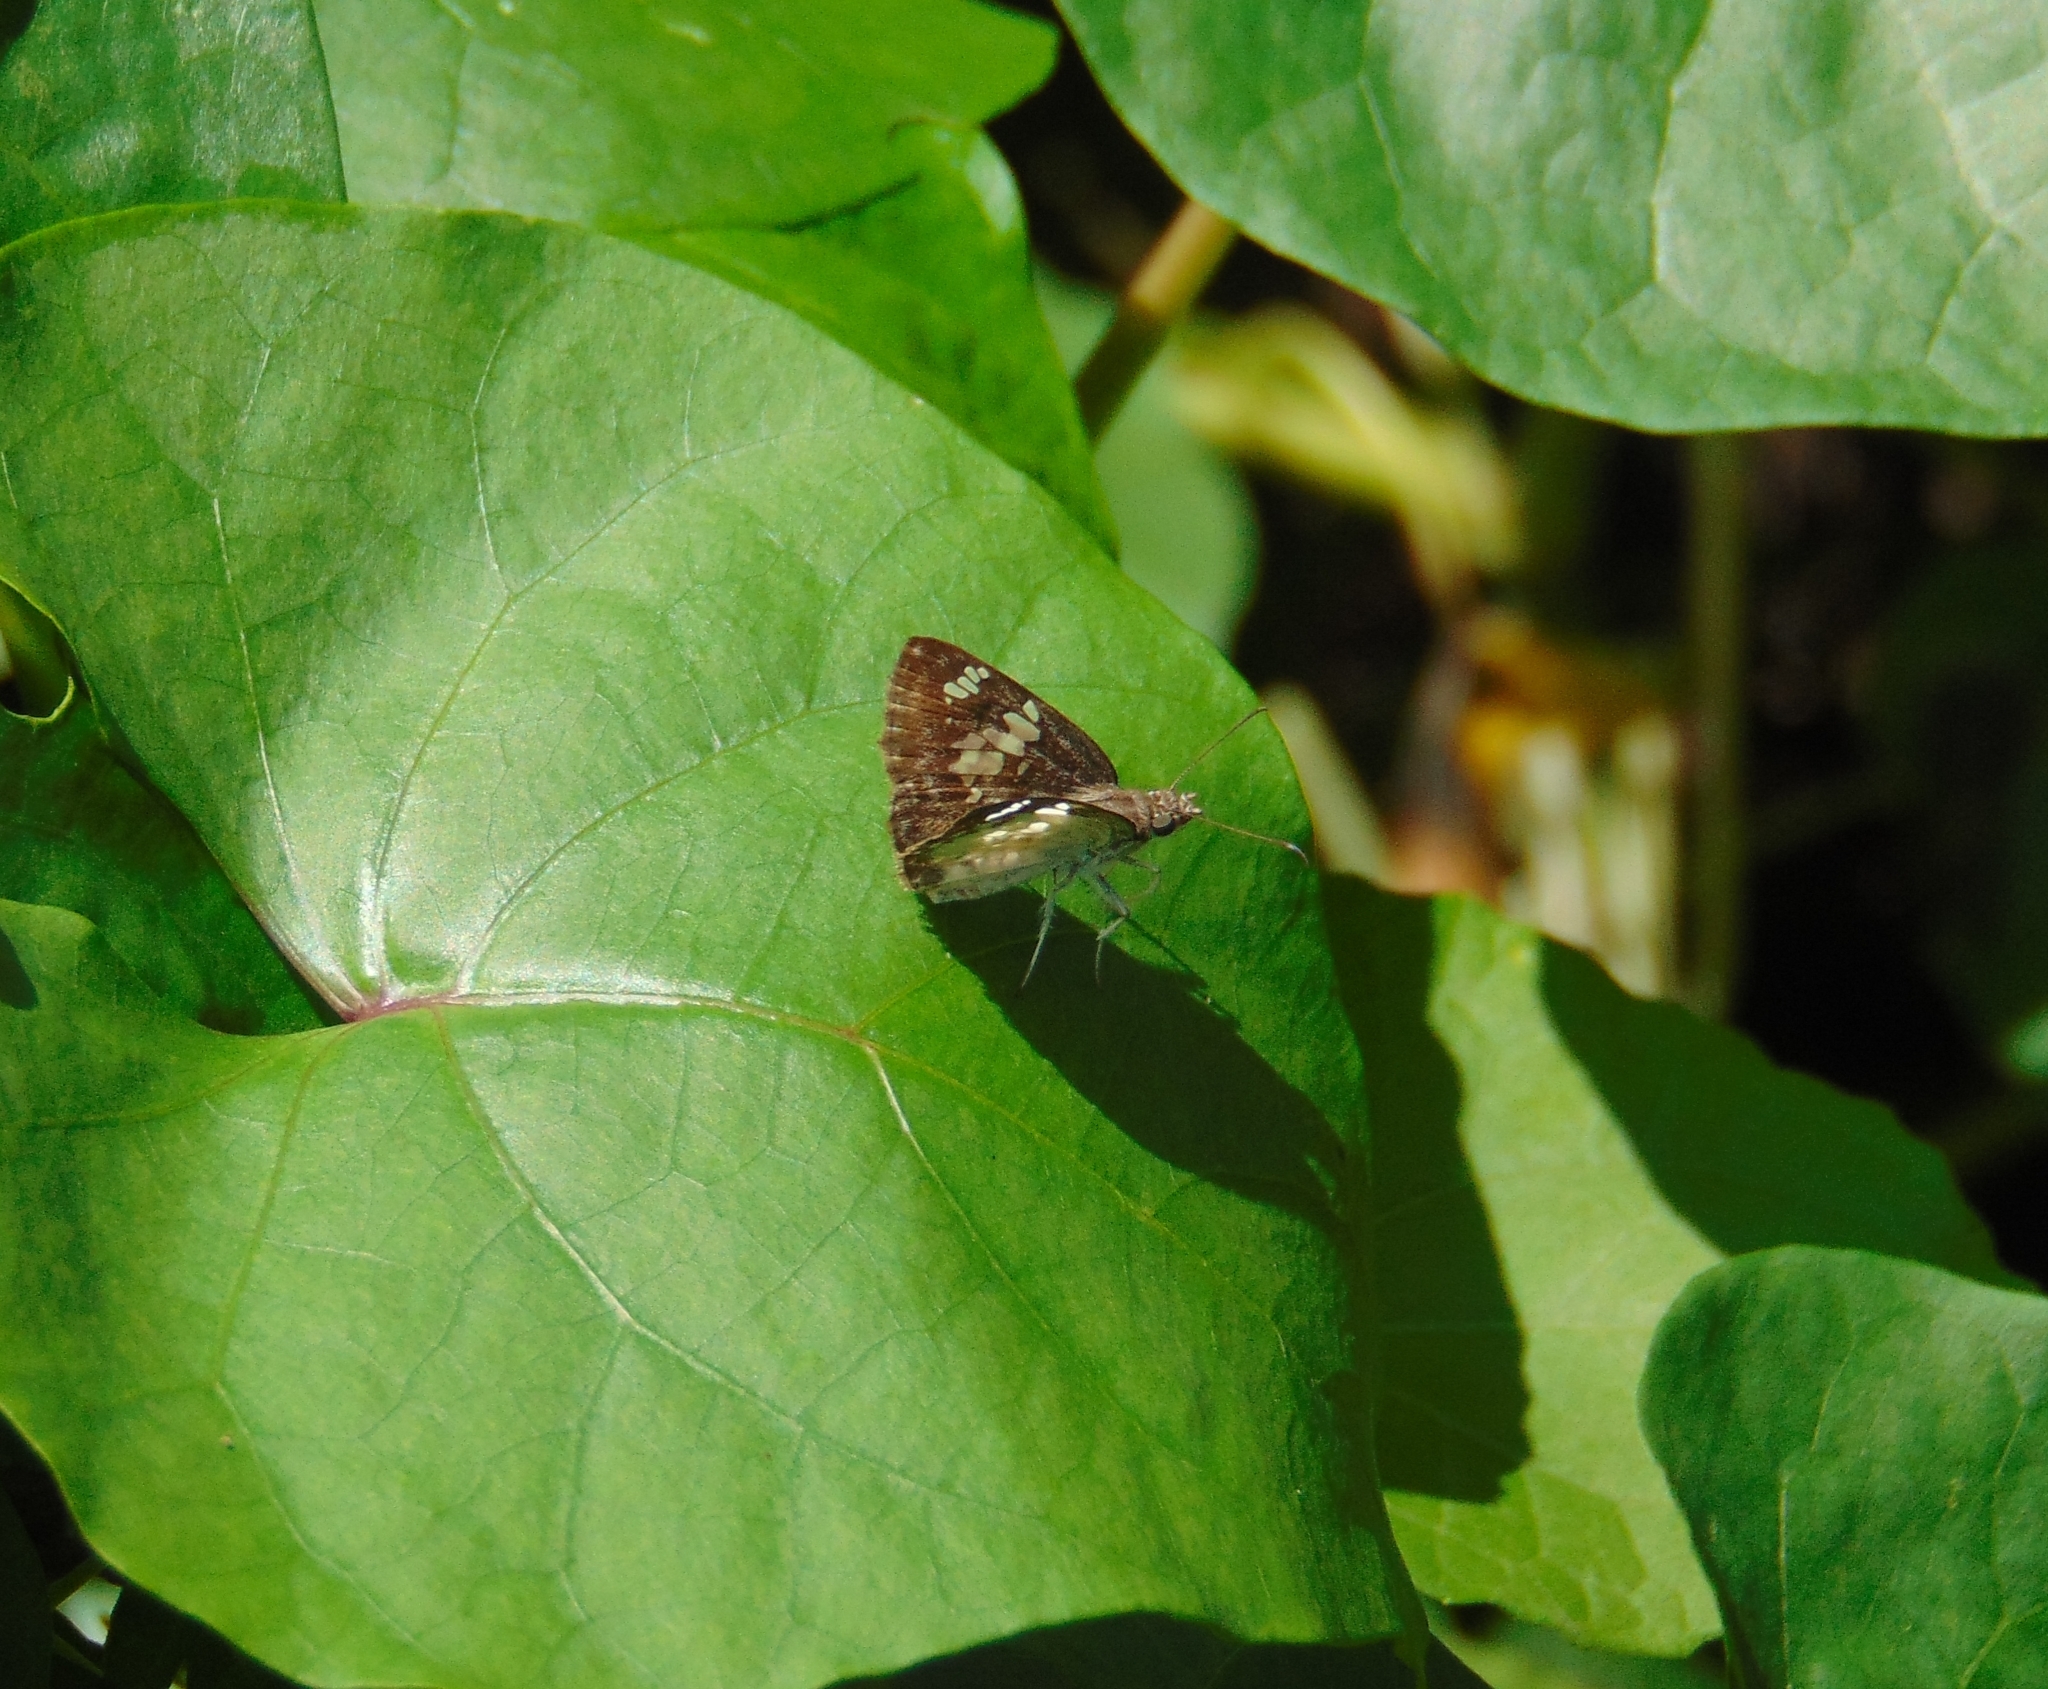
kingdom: Animalia
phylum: Arthropoda
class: Insecta
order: Lepidoptera
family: Hesperiidae
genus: Xenophanes
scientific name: Xenophanes tryxus
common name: Glassy-winged skipper
